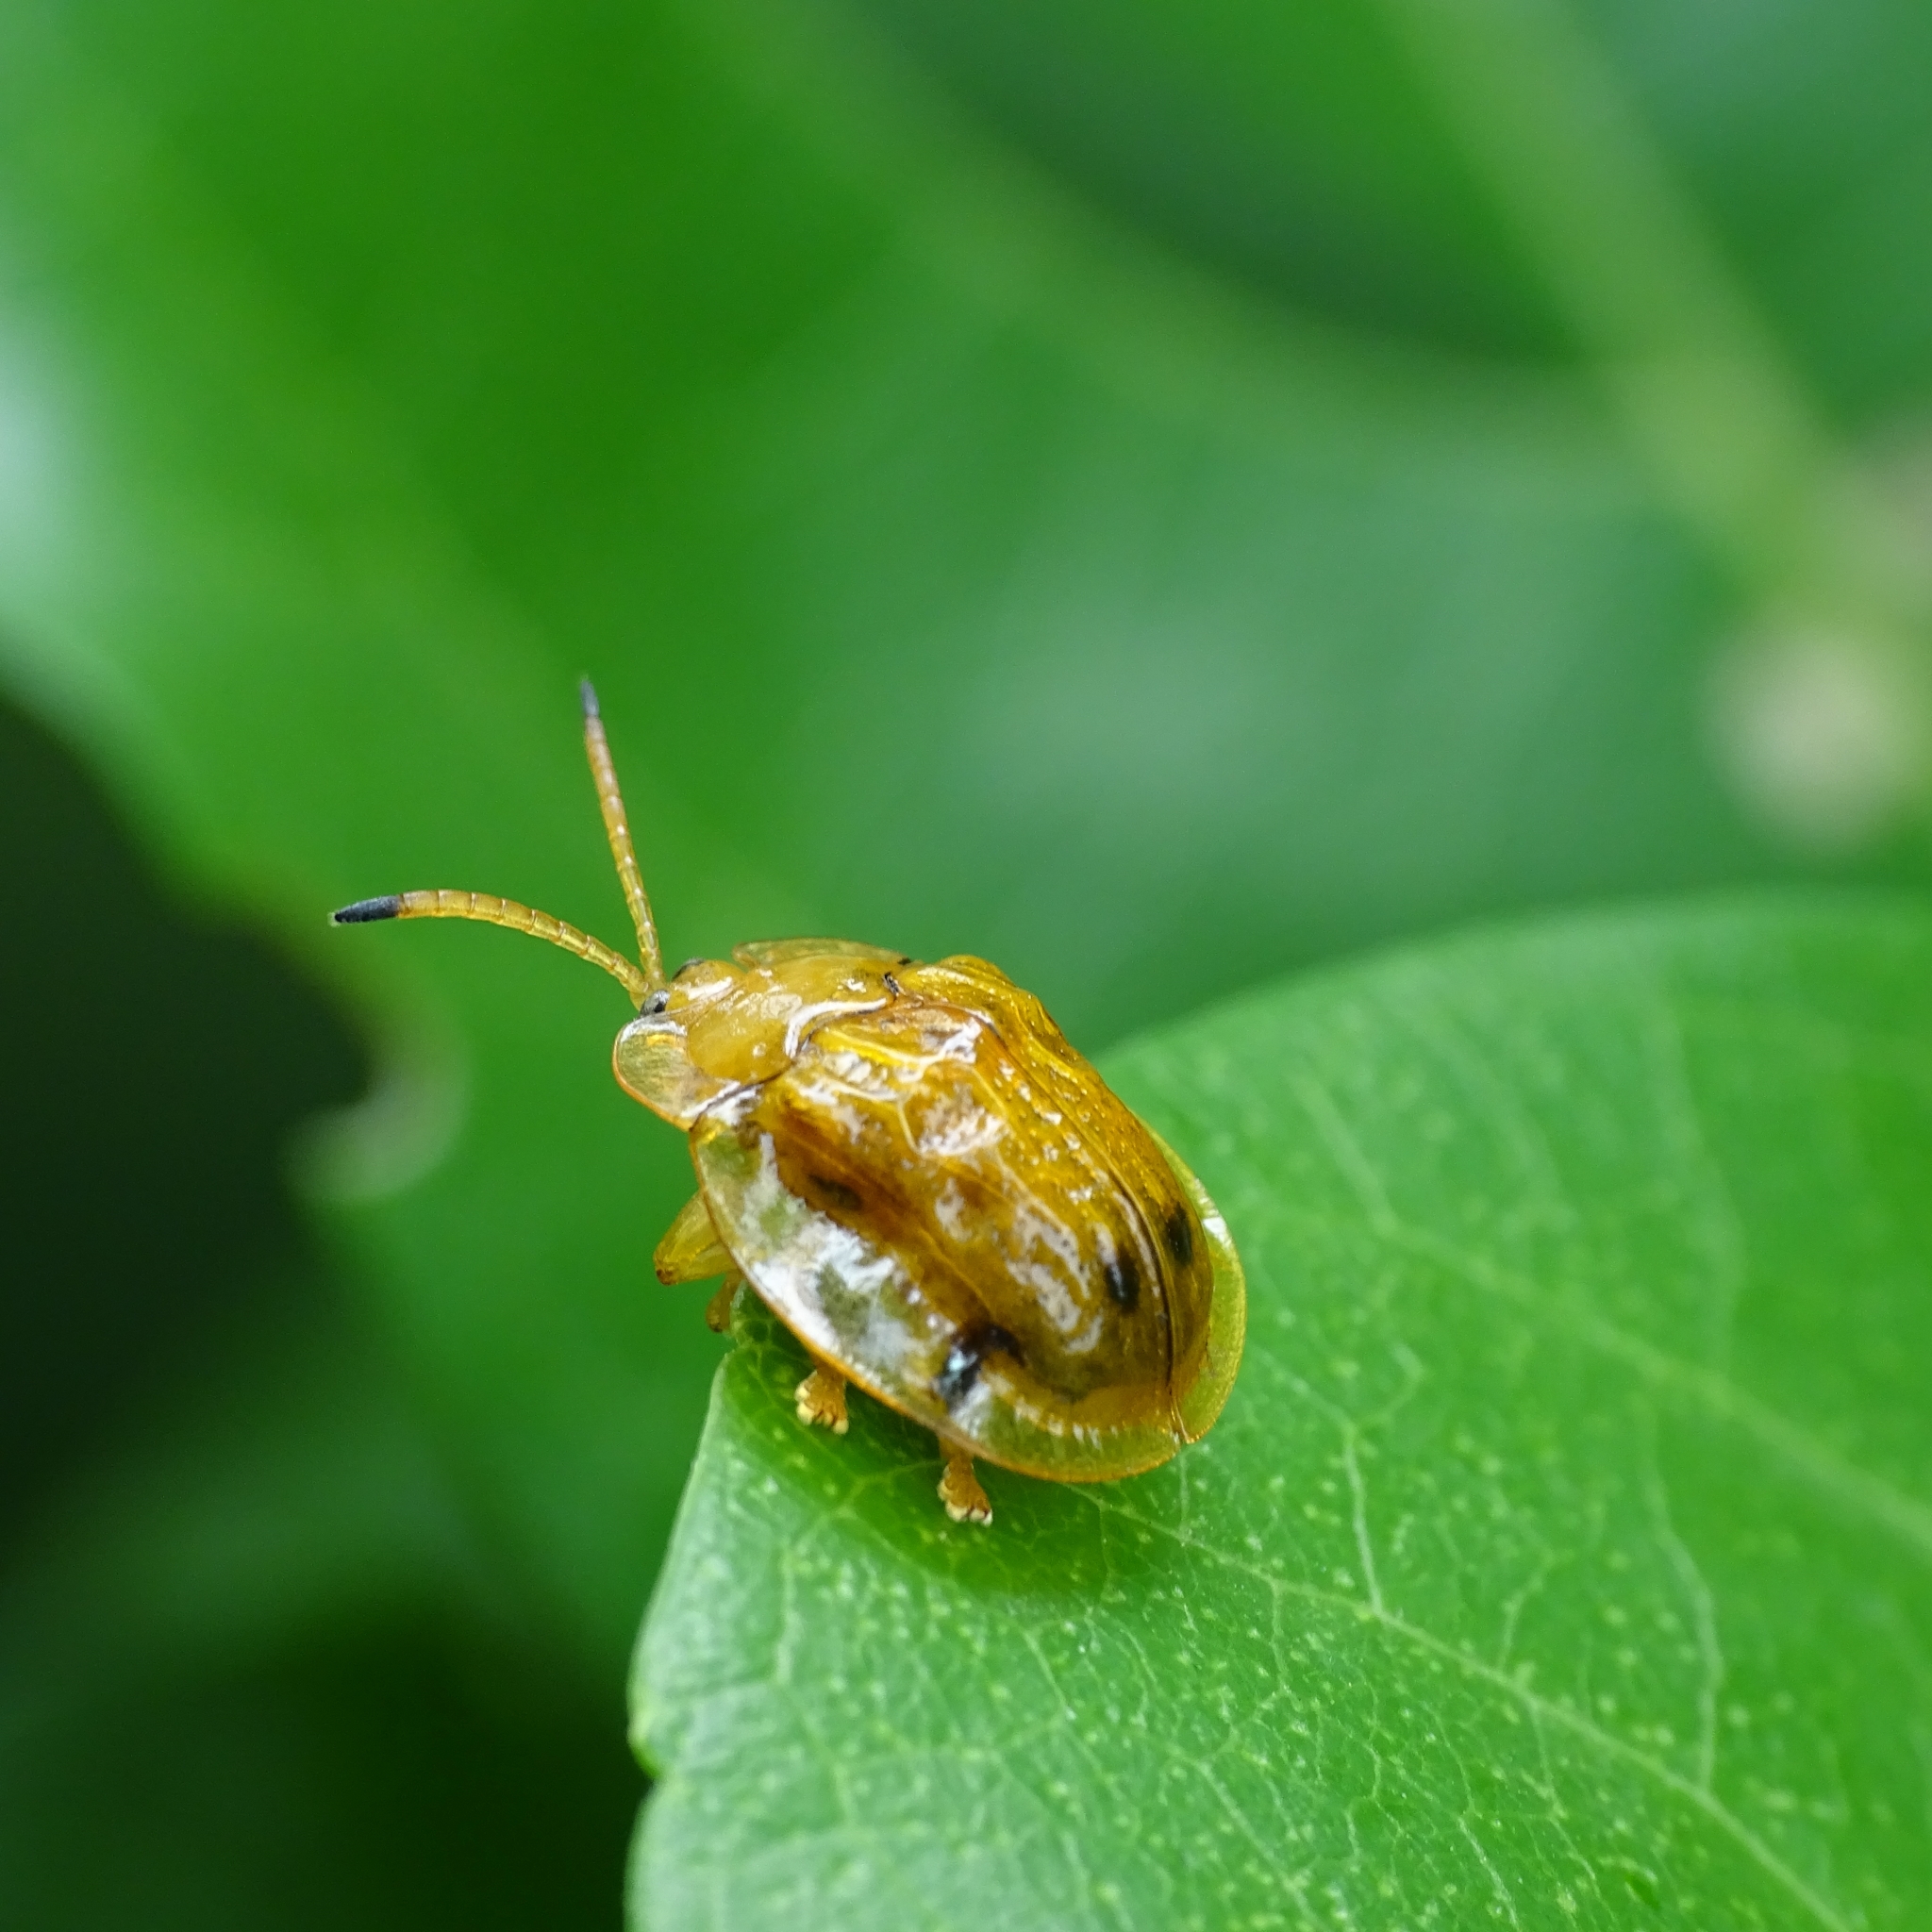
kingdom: Animalia
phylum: Arthropoda
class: Insecta
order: Coleoptera
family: Chrysomelidae
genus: Basiprionota
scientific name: Basiprionota sexmaculata
